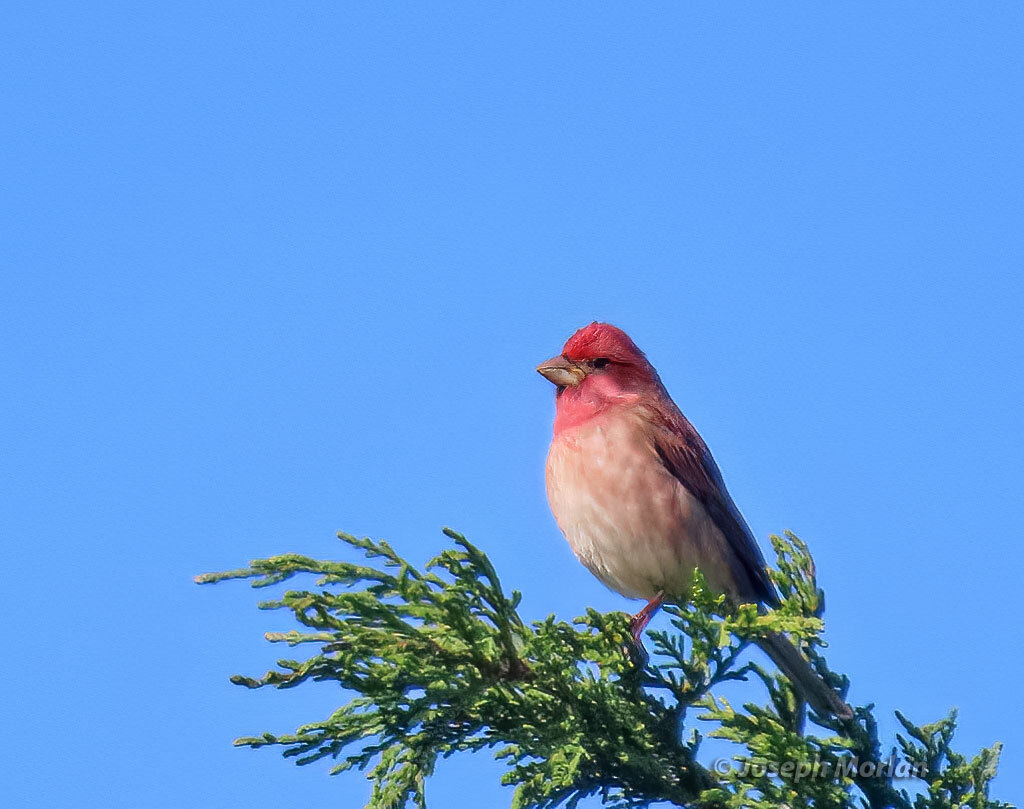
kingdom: Animalia
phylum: Chordata
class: Aves
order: Passeriformes
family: Fringillidae
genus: Haemorhous
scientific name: Haemorhous purpureus
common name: Purple finch
